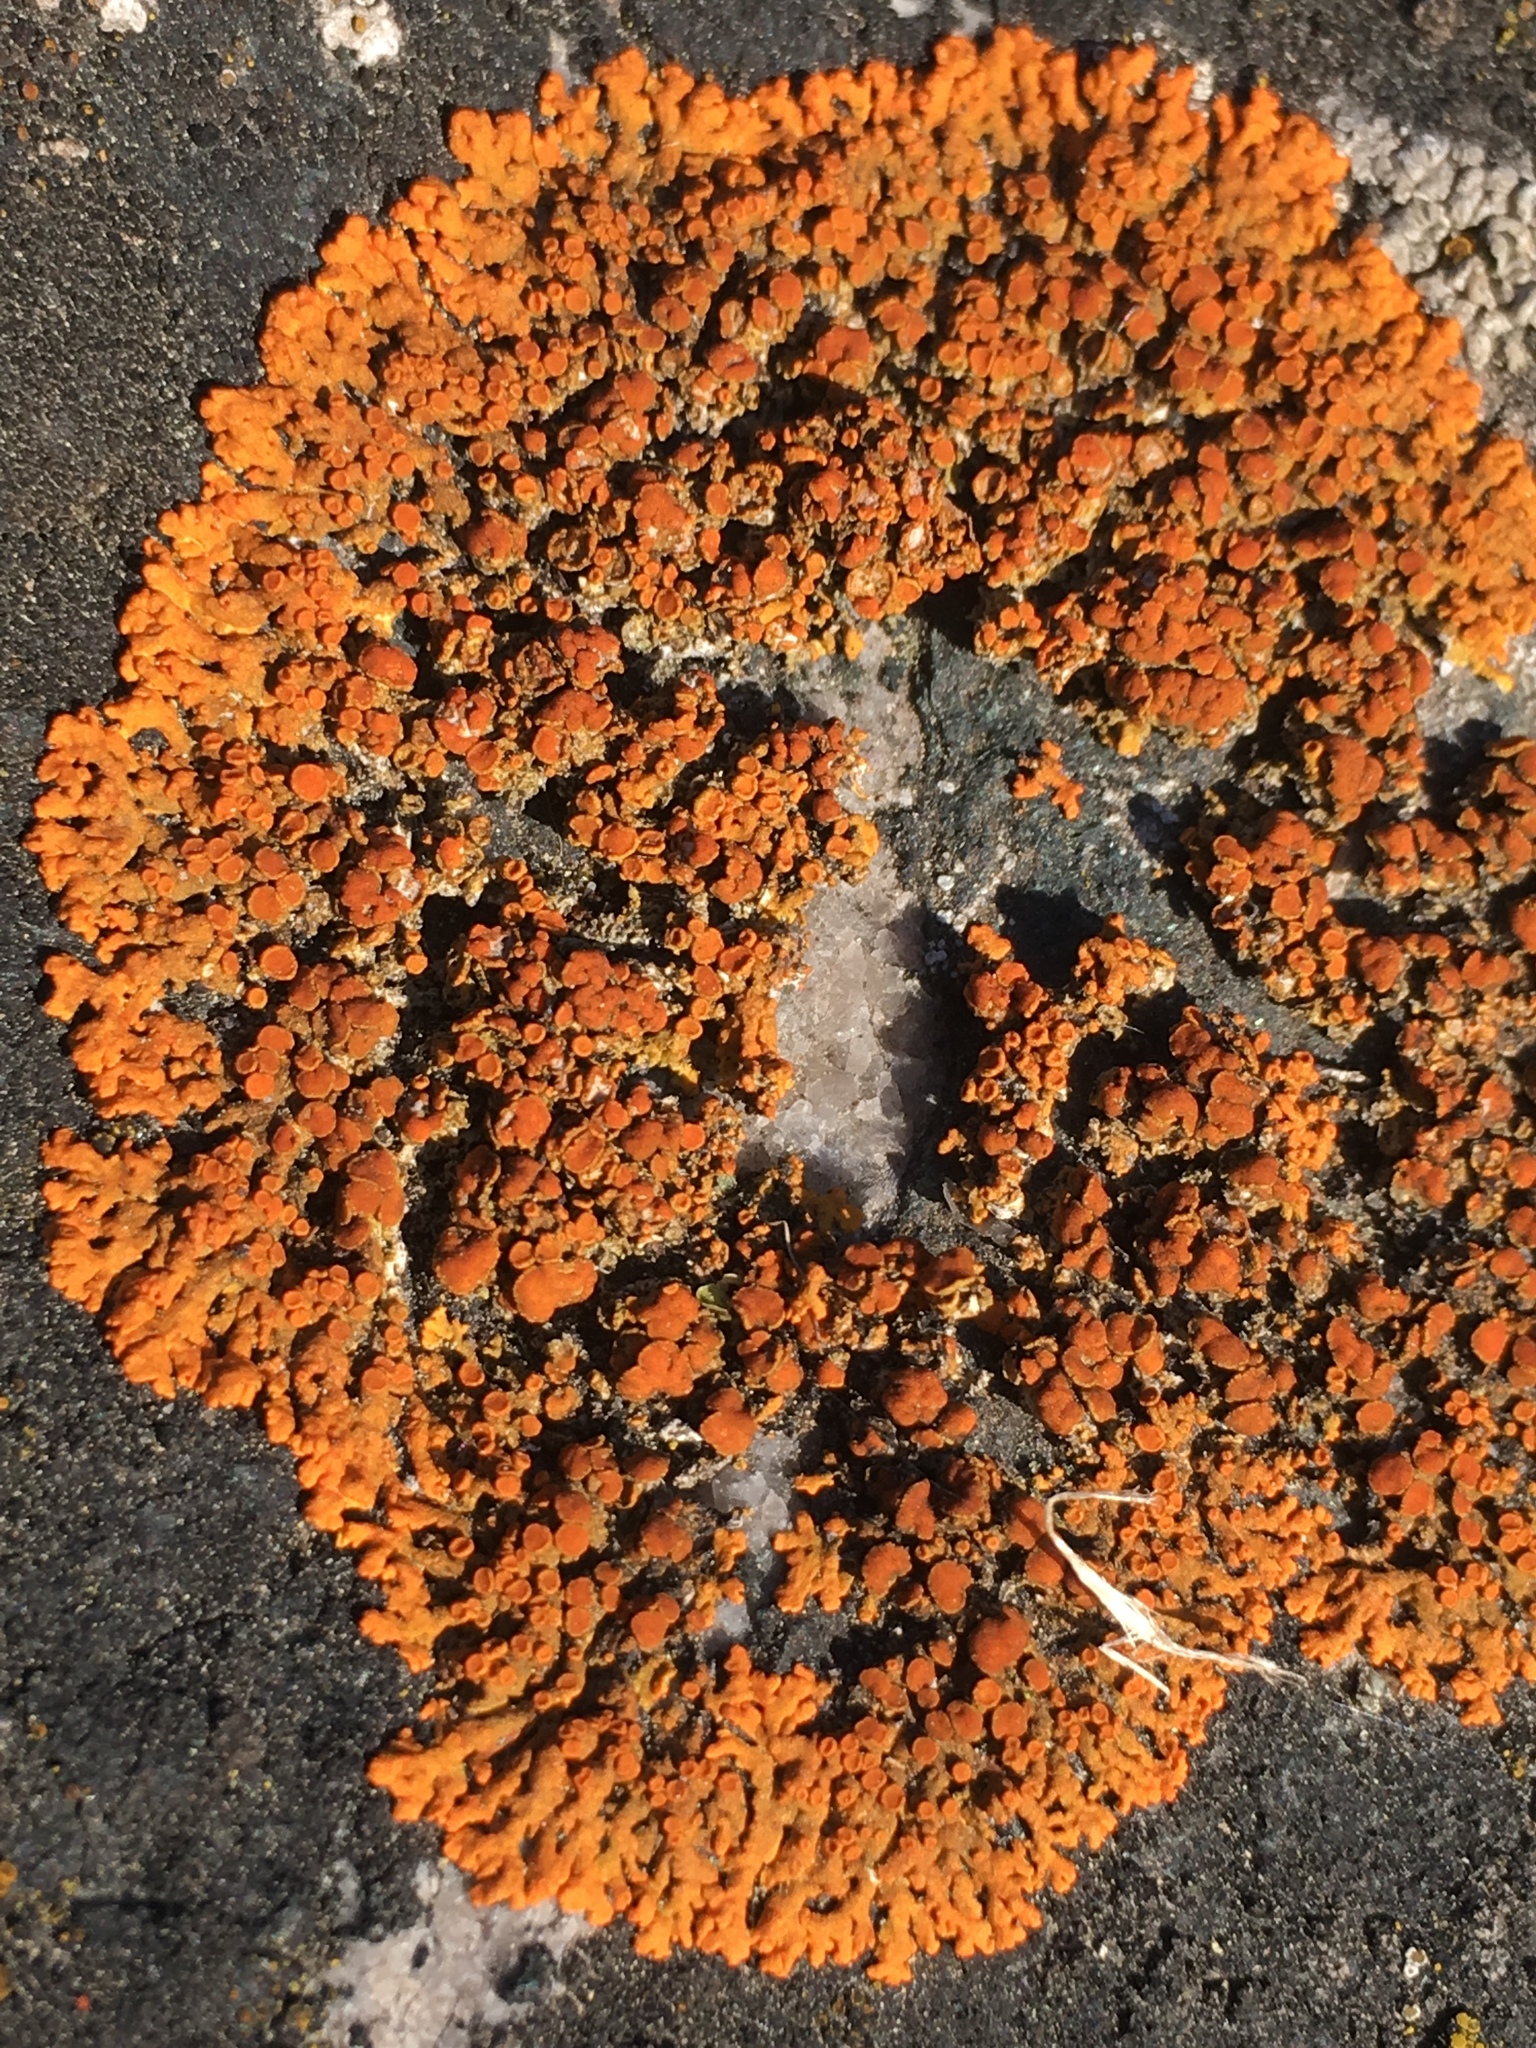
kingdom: Fungi
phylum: Ascomycota
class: Lecanoromycetes
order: Teloschistales
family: Teloschistaceae
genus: Xanthoria
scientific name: Xanthoria elegans
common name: Elegant sunburst lichen
